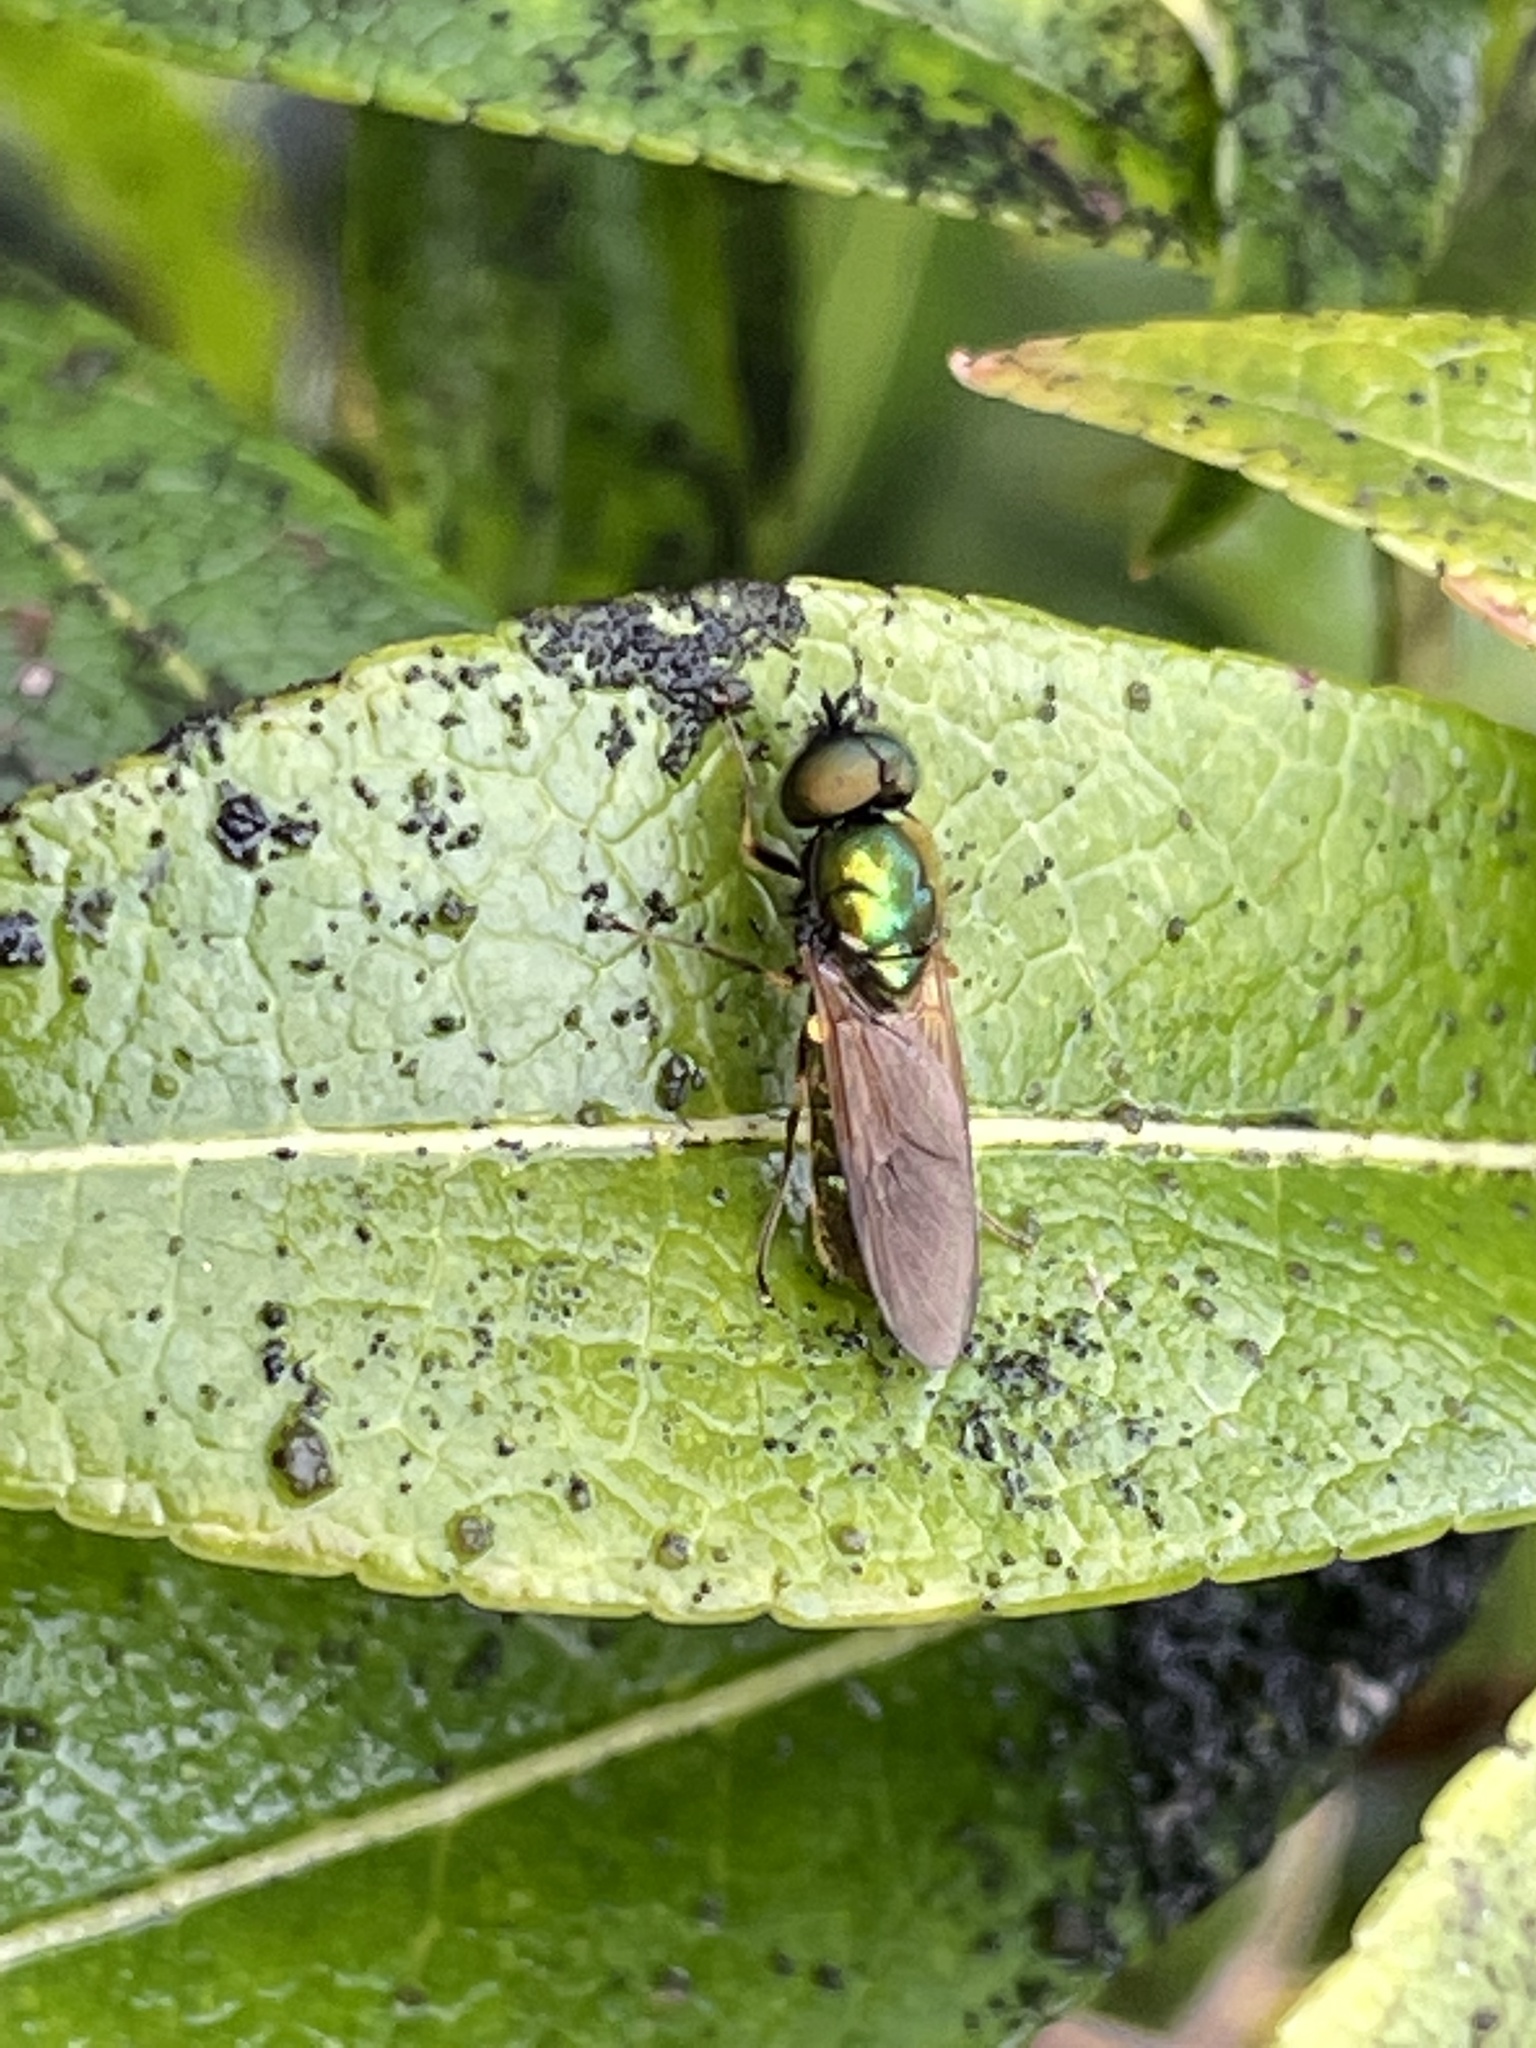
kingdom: Animalia
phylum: Arthropoda
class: Insecta
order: Diptera
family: Stratiomyidae
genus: Chloromyia
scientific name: Chloromyia formosa
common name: Soldier fly
